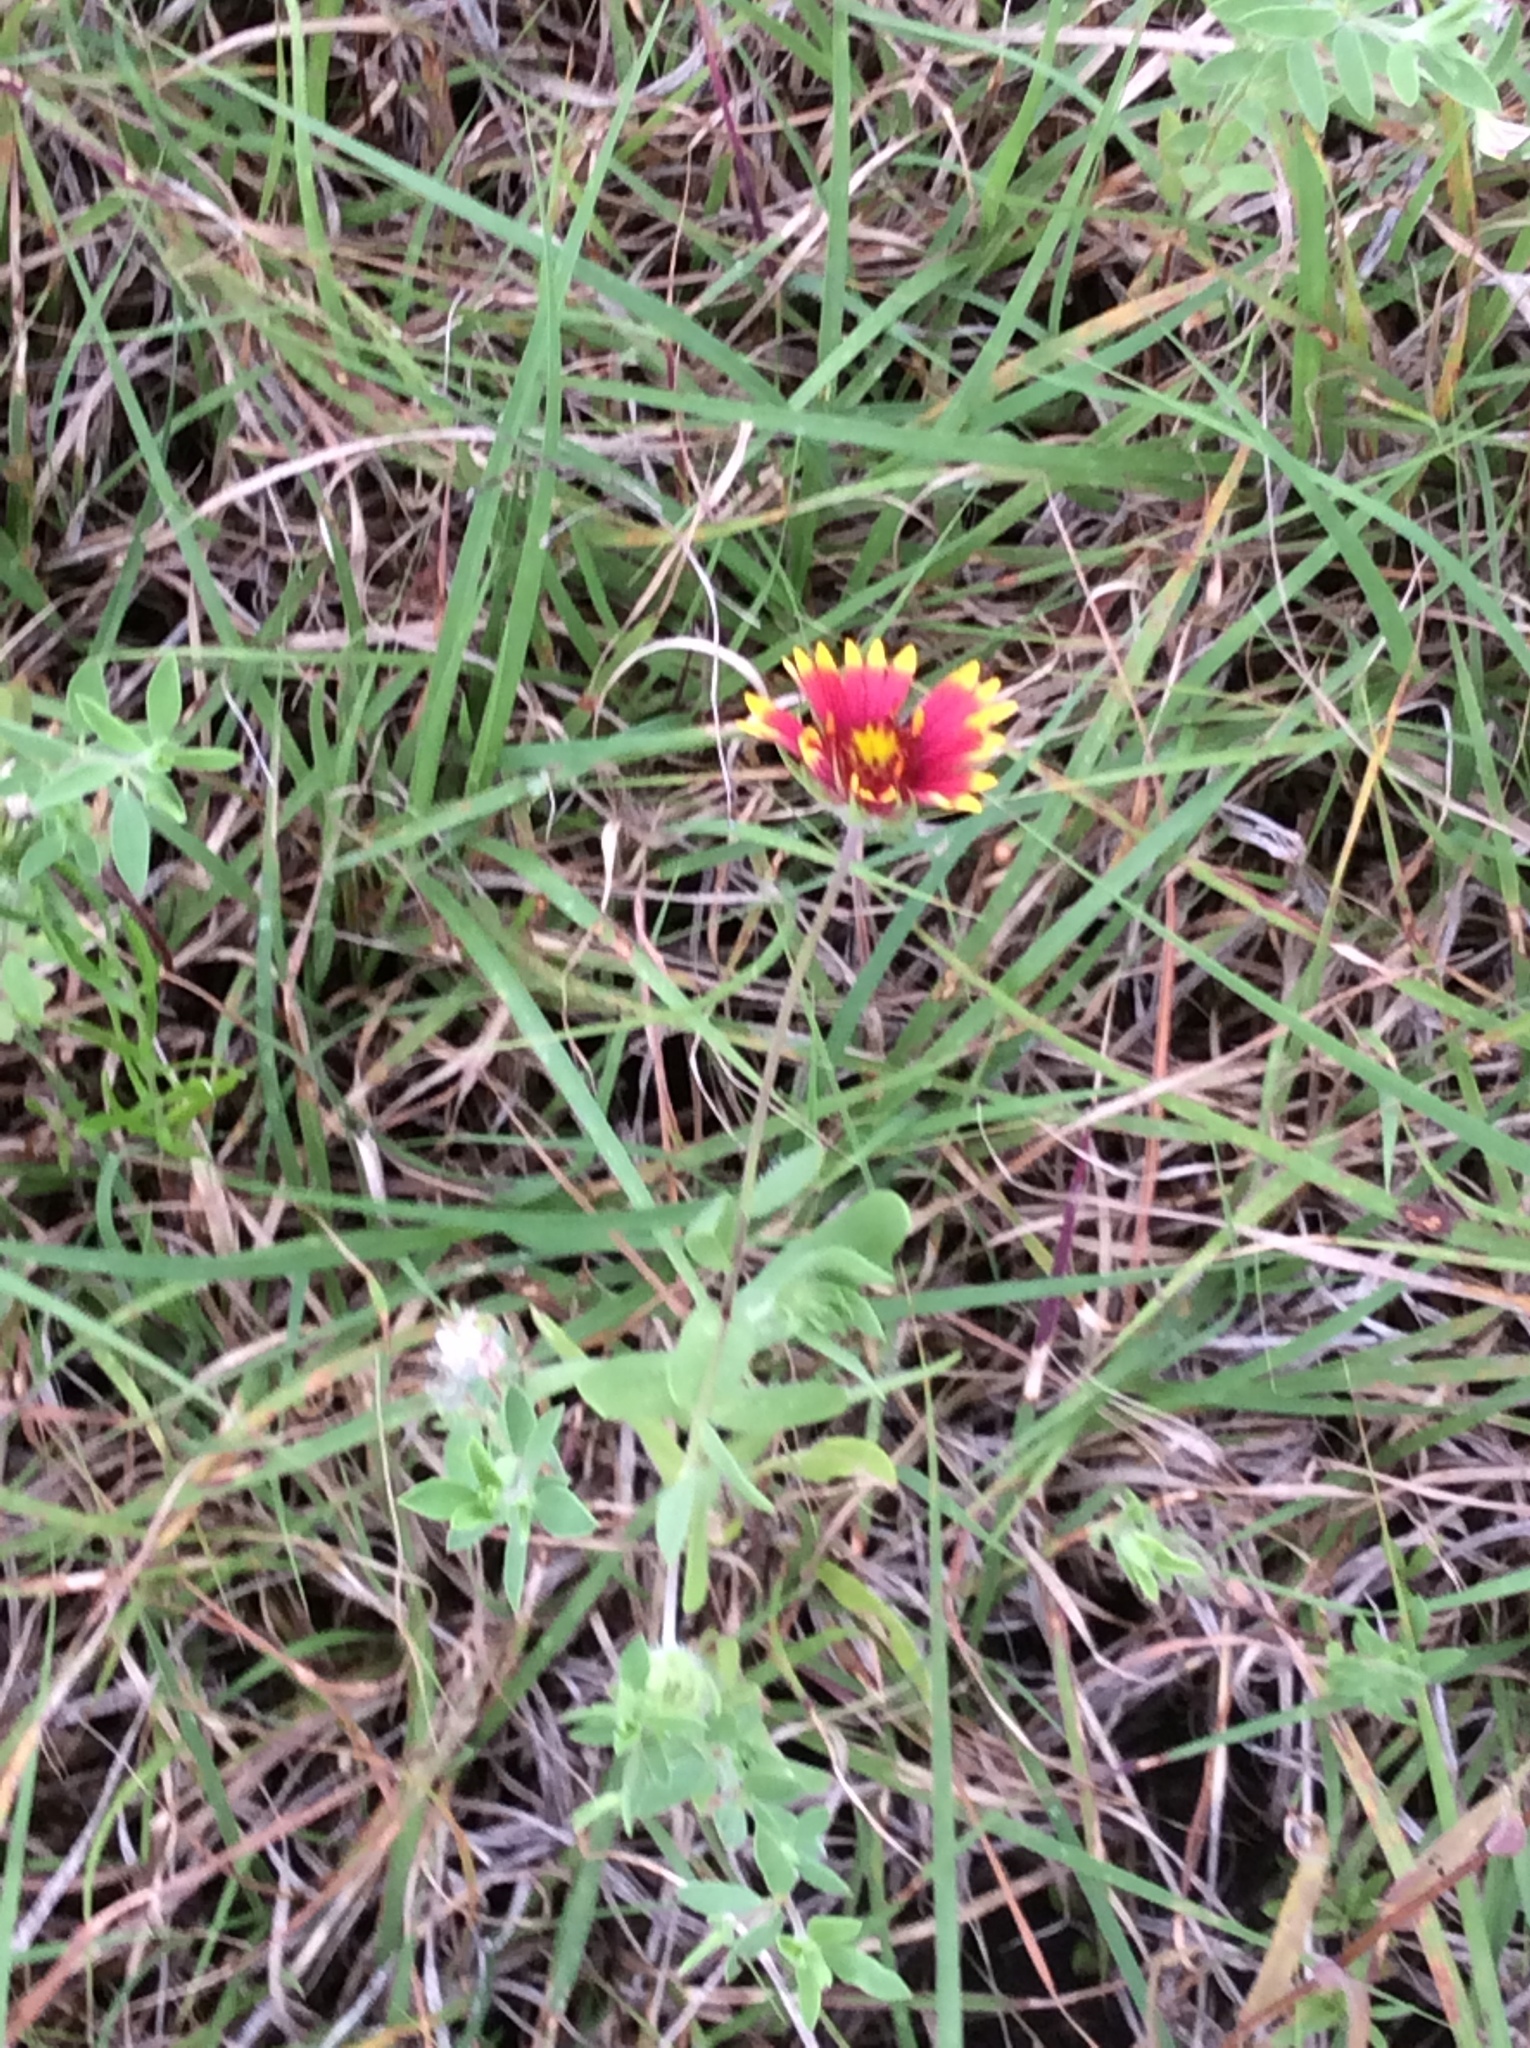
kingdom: Plantae
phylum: Tracheophyta
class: Magnoliopsida
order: Asterales
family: Asteraceae
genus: Gaillardia
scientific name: Gaillardia pulchella
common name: Firewheel
